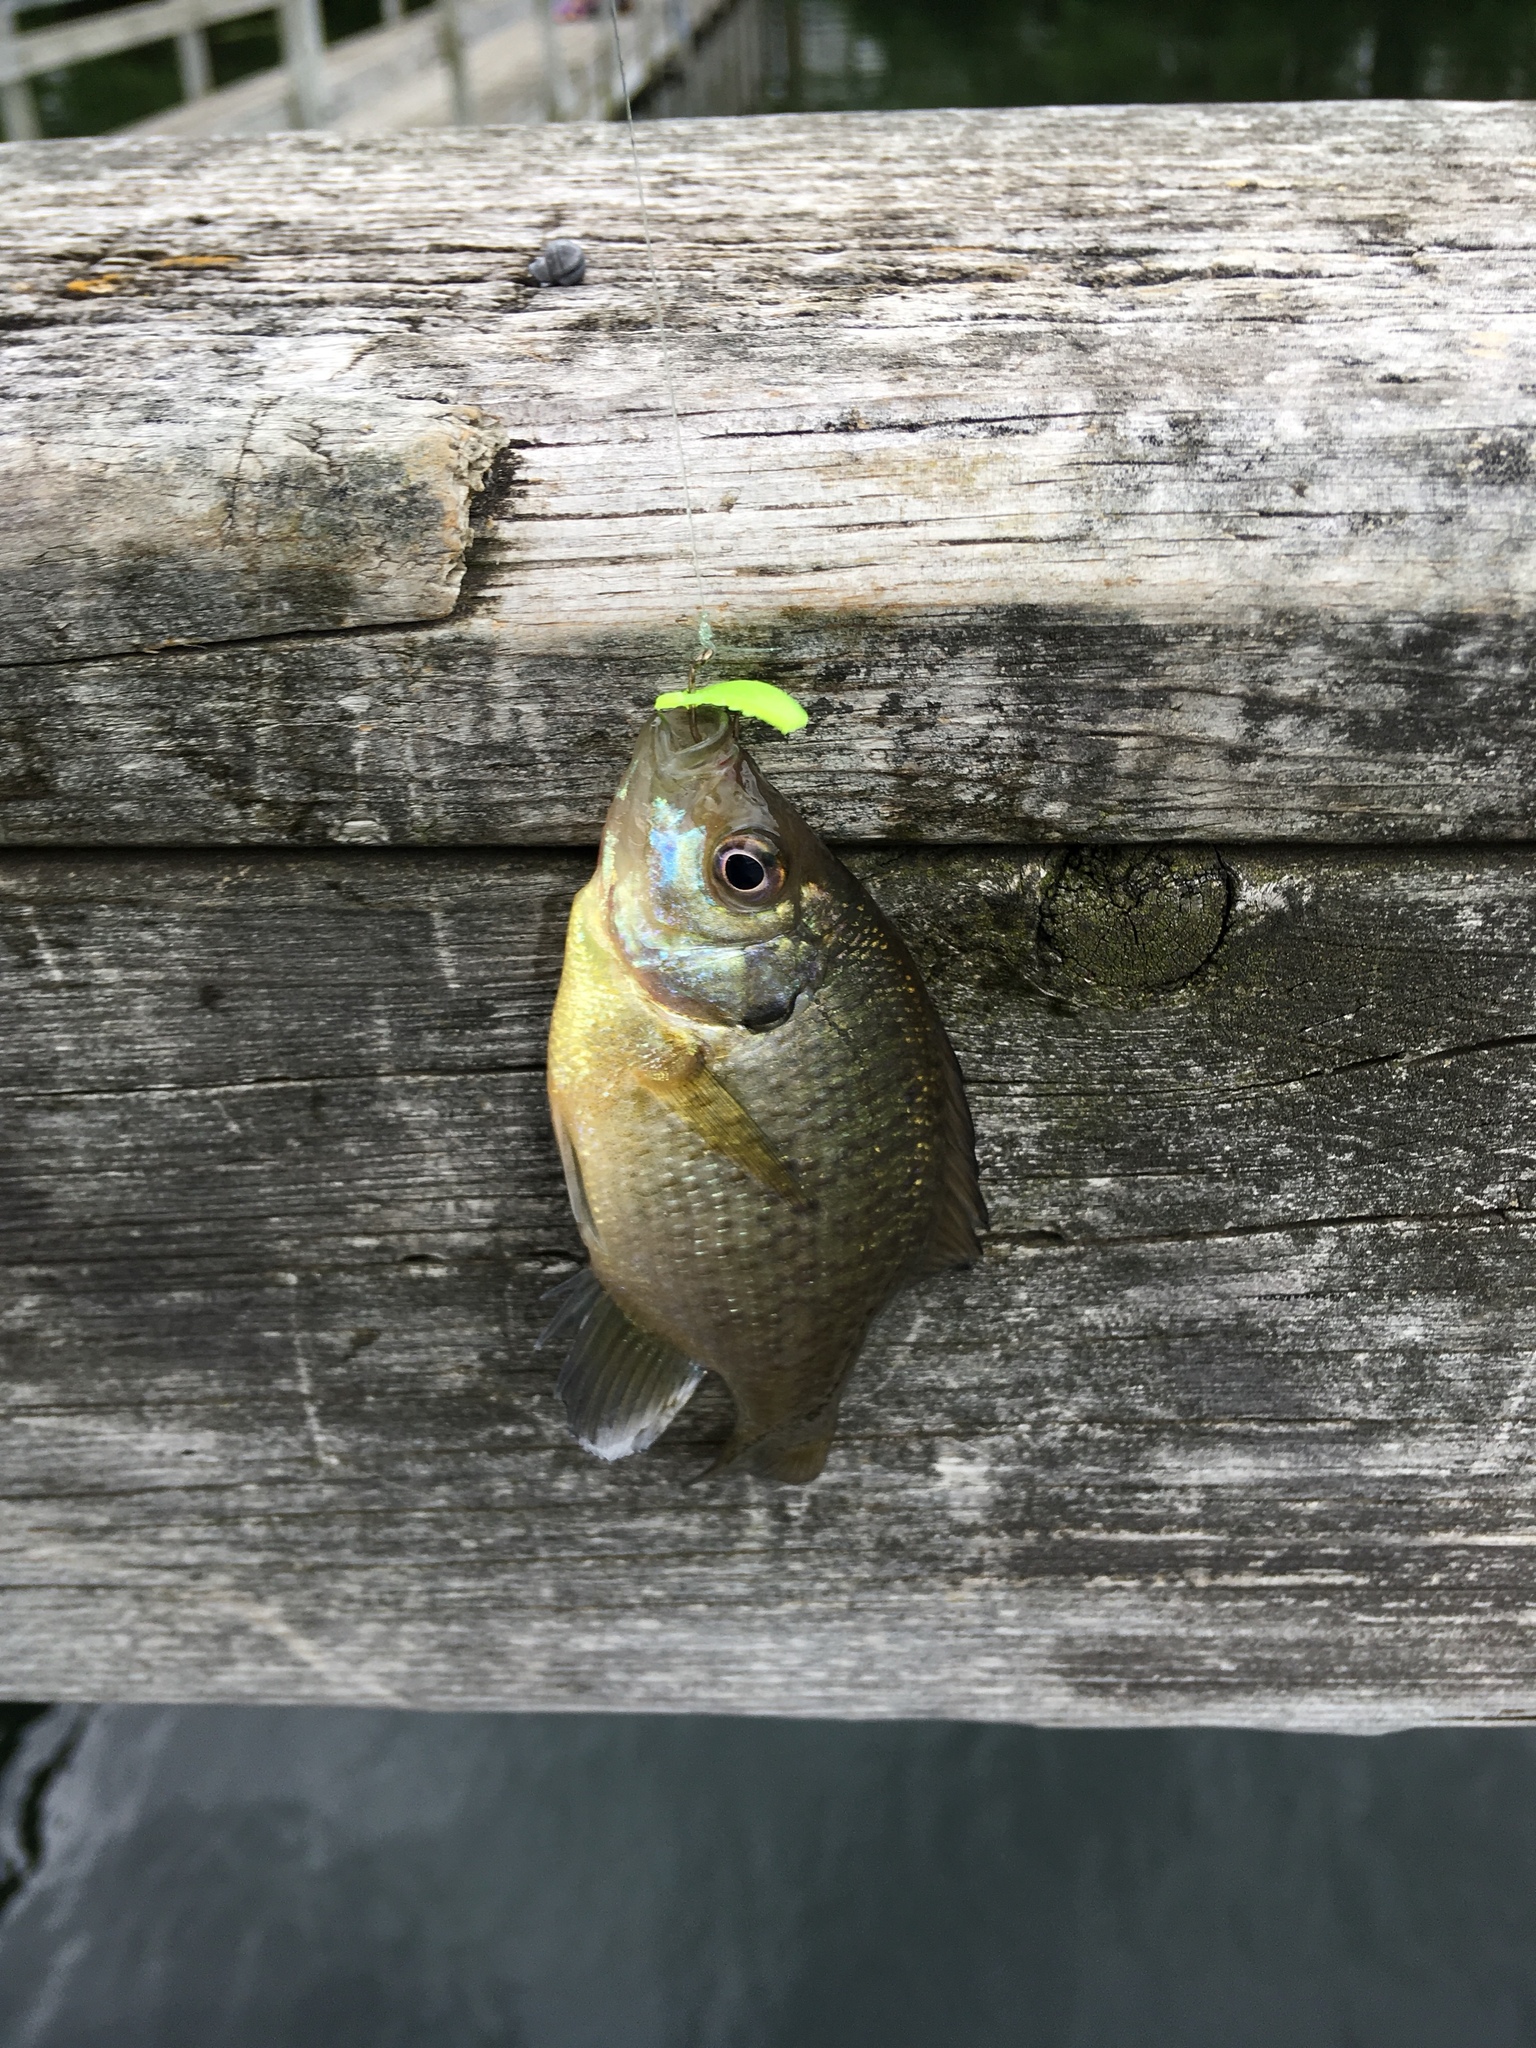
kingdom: Animalia
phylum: Chordata
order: Perciformes
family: Centrarchidae
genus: Lepomis
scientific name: Lepomis macrochirus
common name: Bluegill
